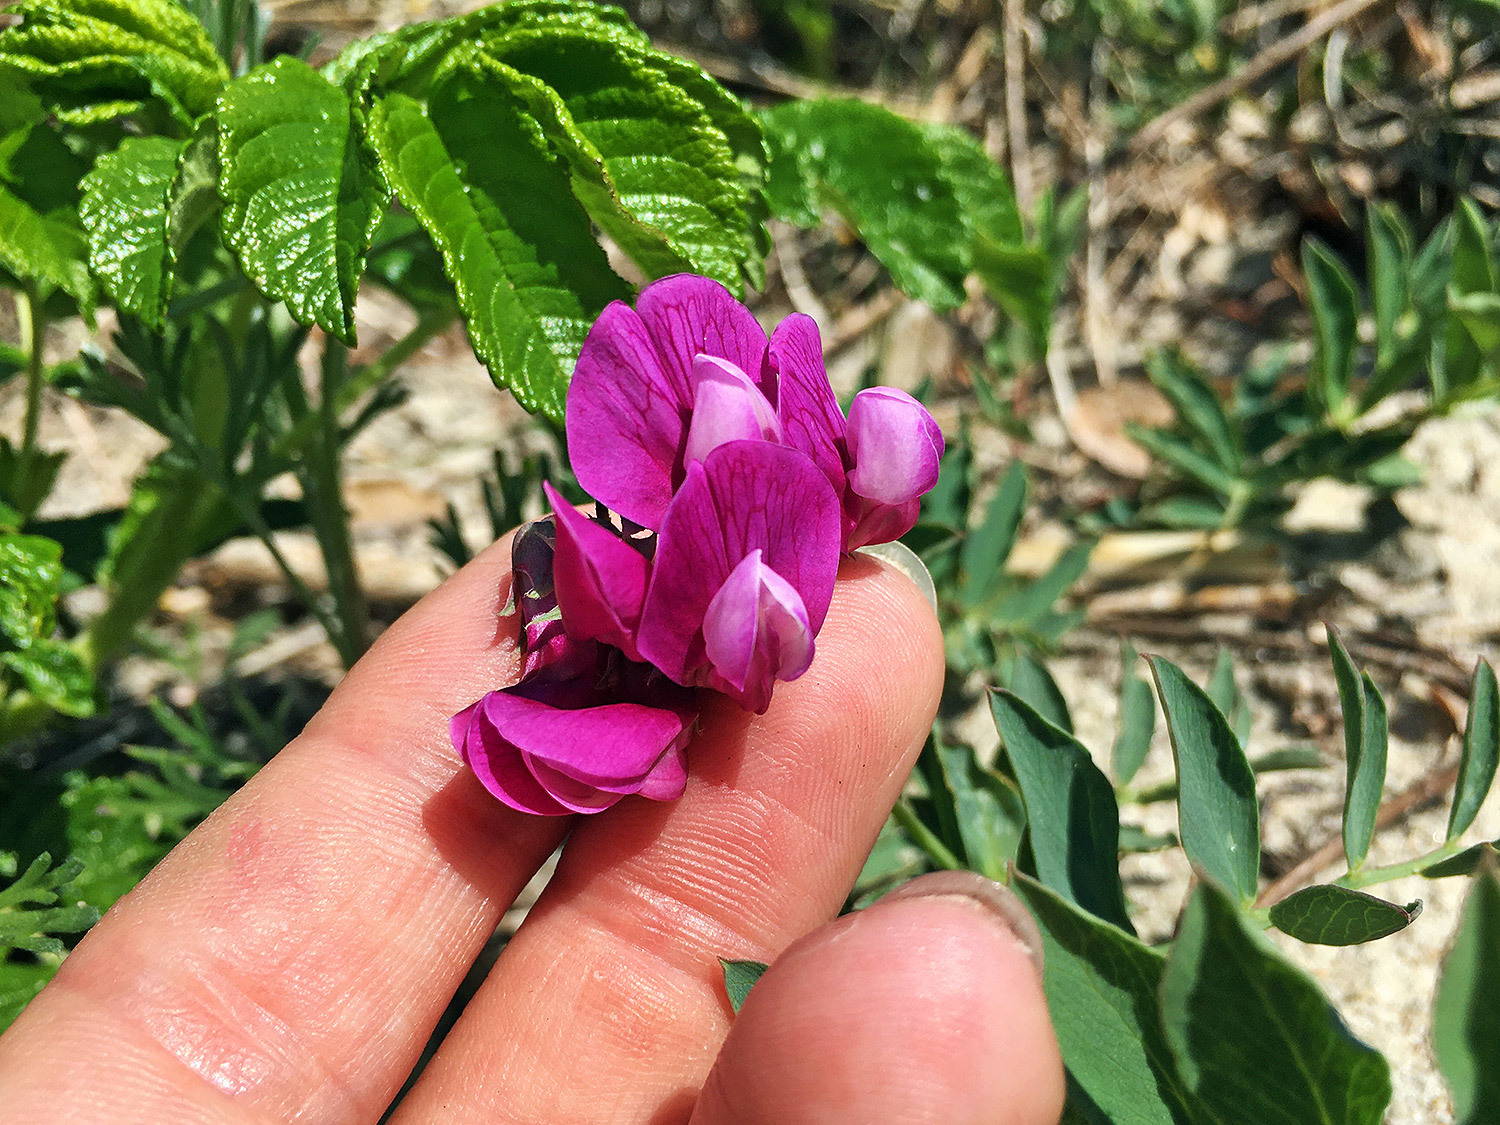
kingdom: Plantae
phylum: Tracheophyta
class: Magnoliopsida
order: Fabales
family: Fabaceae
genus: Lathyrus
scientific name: Lathyrus japonicus
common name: Sea pea
